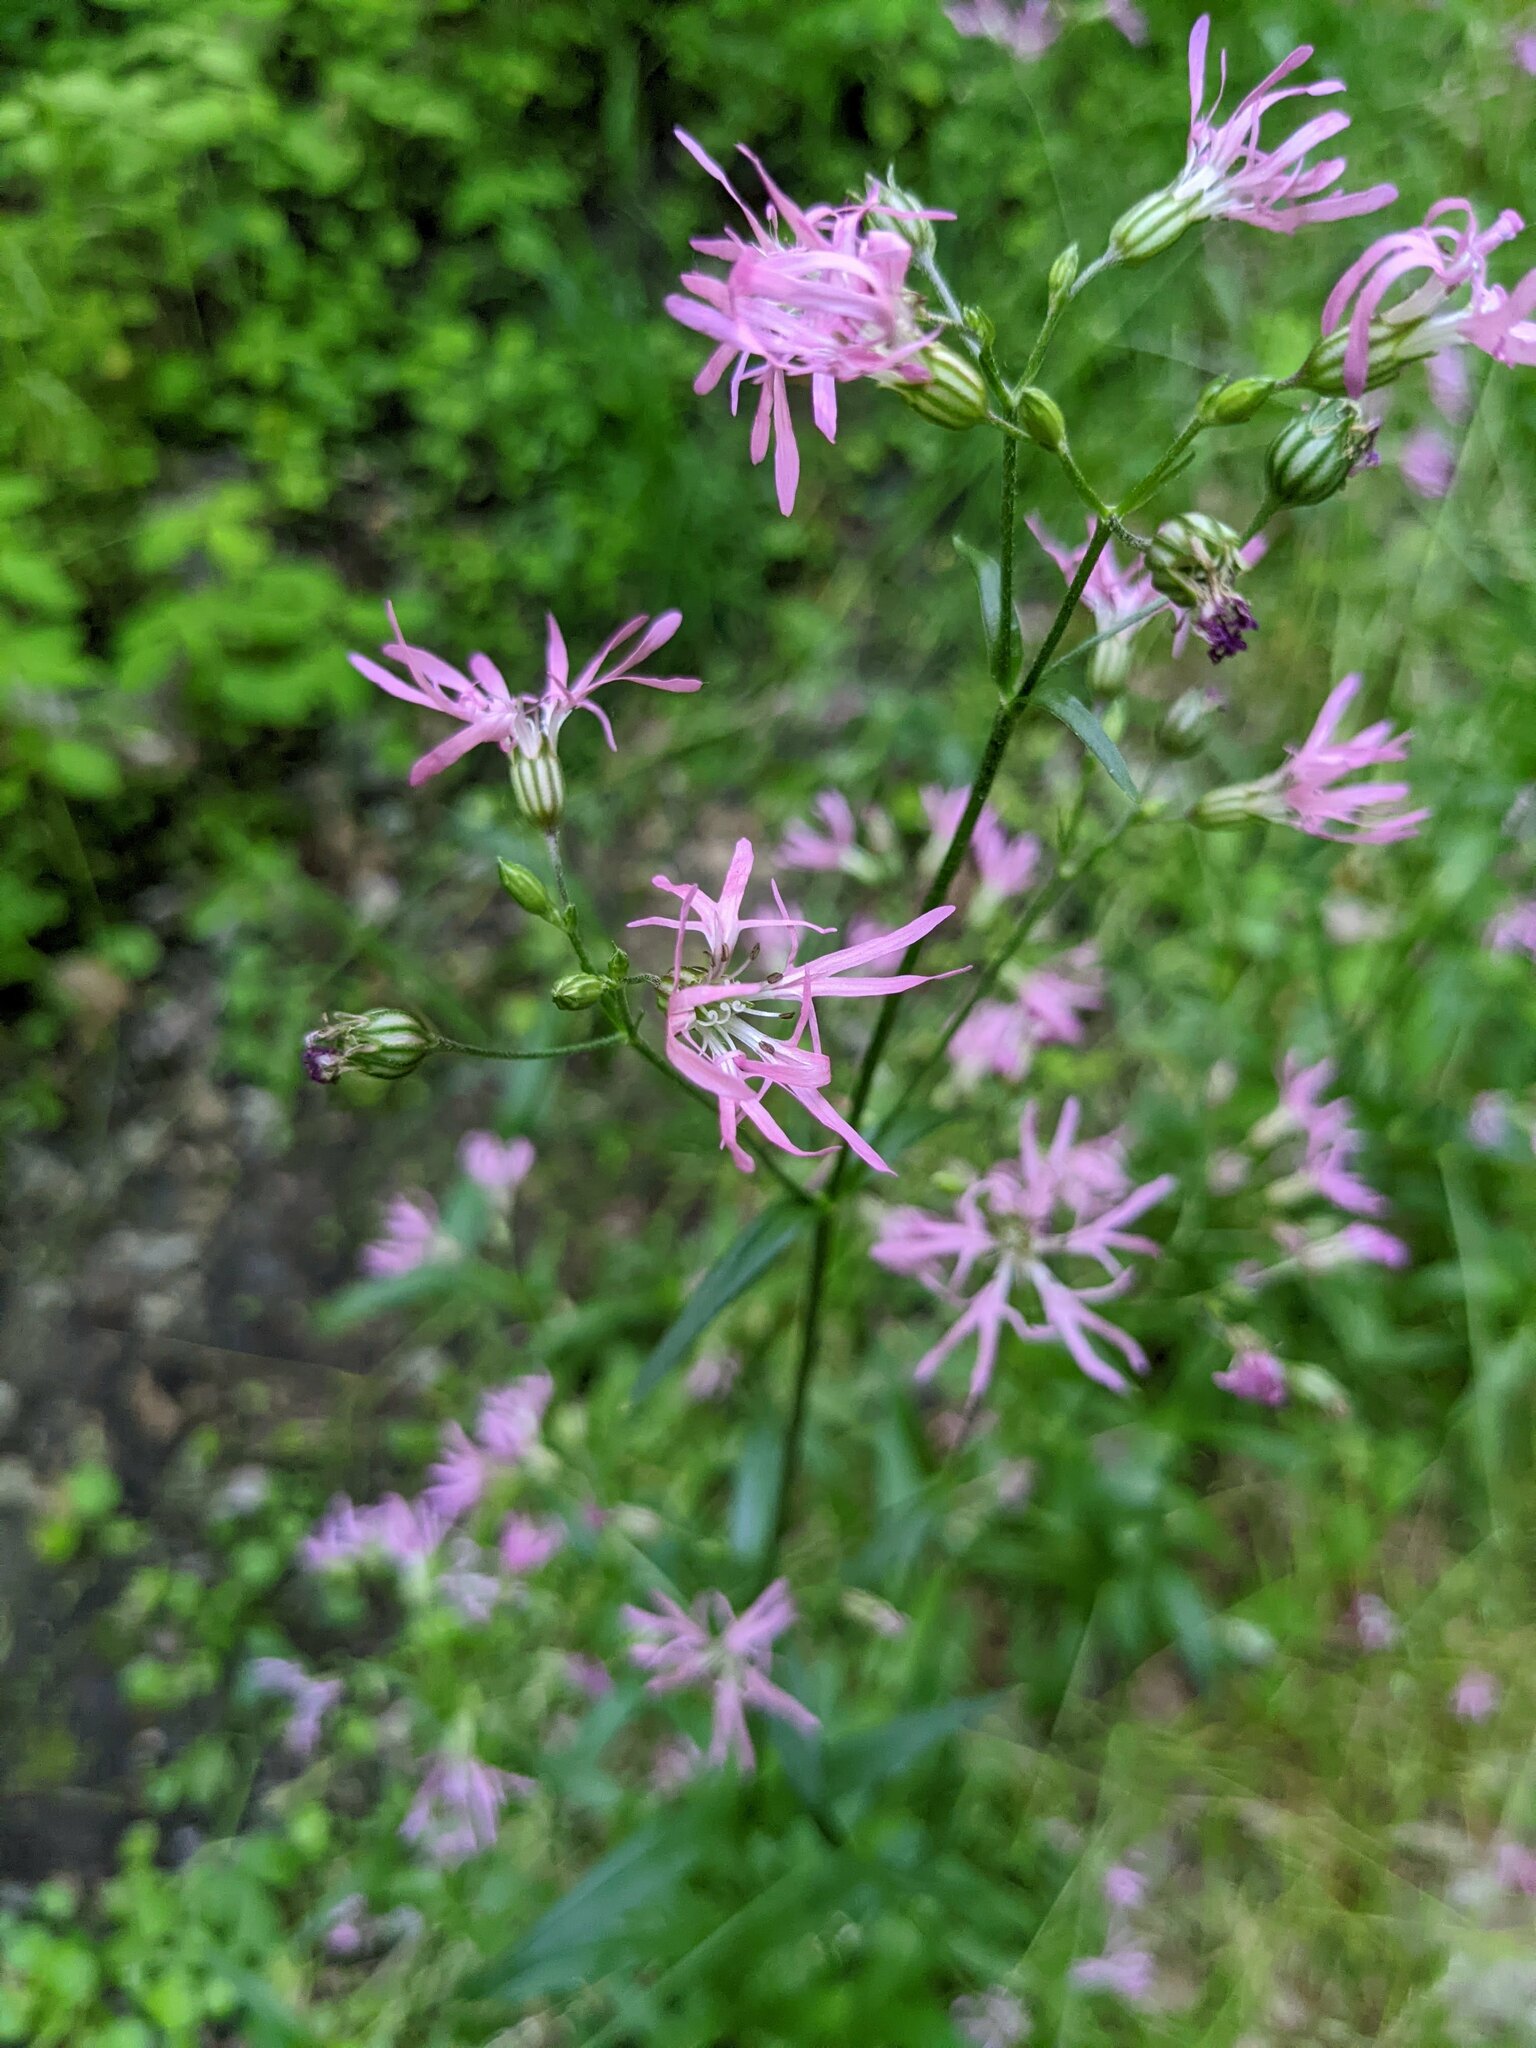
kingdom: Plantae
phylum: Tracheophyta
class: Magnoliopsida
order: Caryophyllales
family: Caryophyllaceae
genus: Silene
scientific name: Silene flos-cuculi
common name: Ragged-robin
